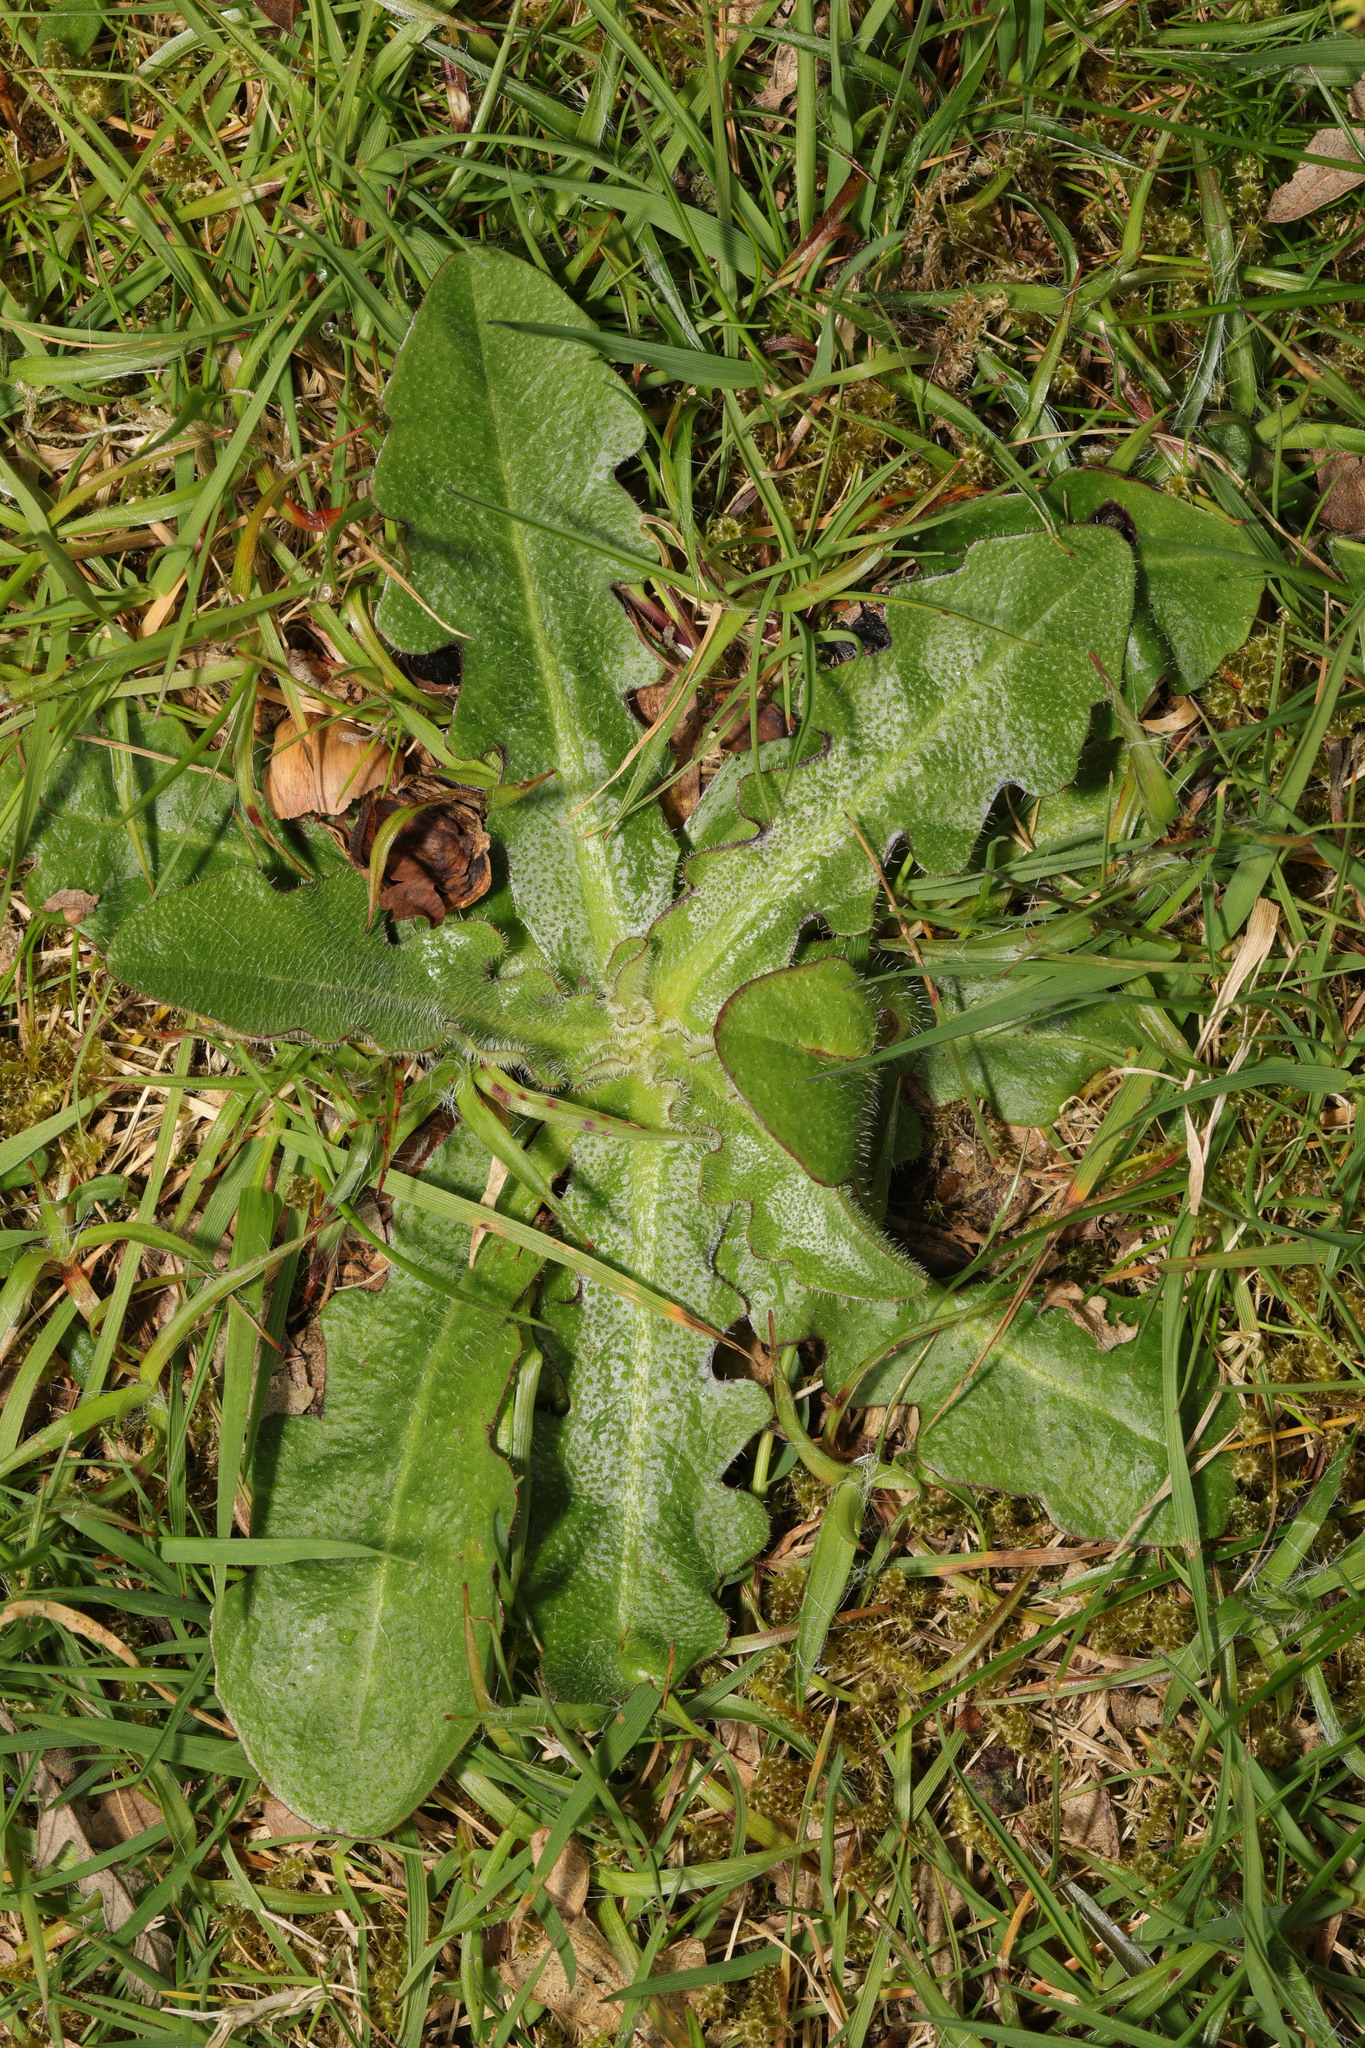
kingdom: Plantae
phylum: Tracheophyta
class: Magnoliopsida
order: Asterales
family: Asteraceae
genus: Hypochaeris
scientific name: Hypochaeris radicata
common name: Flatweed
